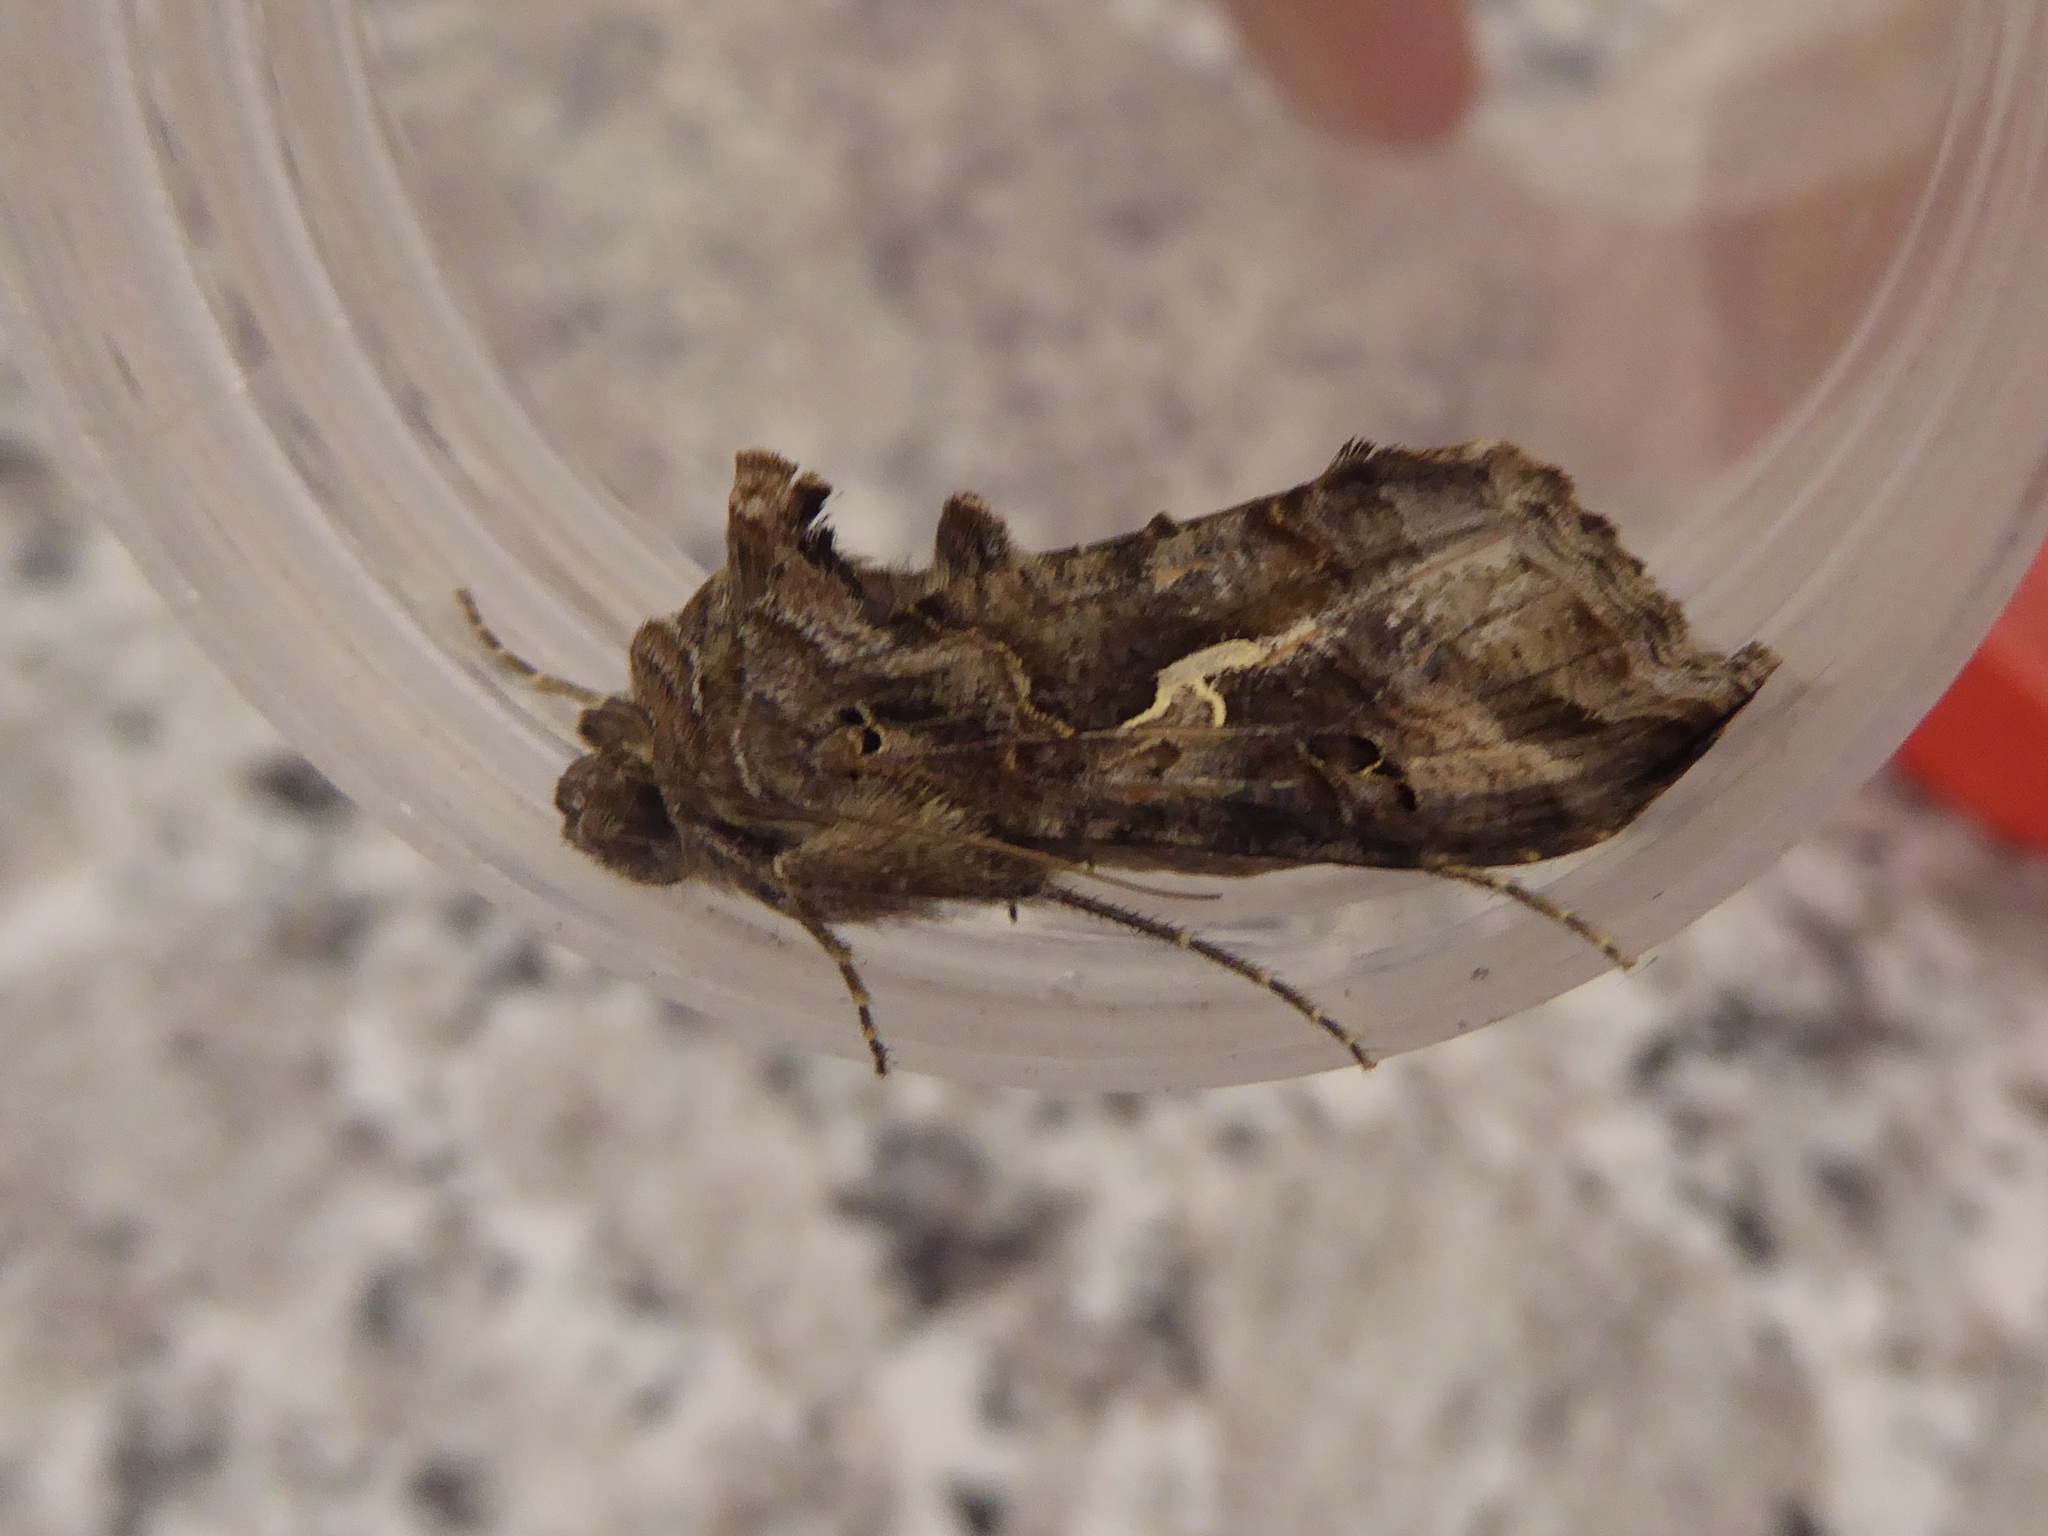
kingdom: Animalia
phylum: Arthropoda
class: Insecta
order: Lepidoptera
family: Noctuidae
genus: Autographa
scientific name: Autographa gamma
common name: Silver y
